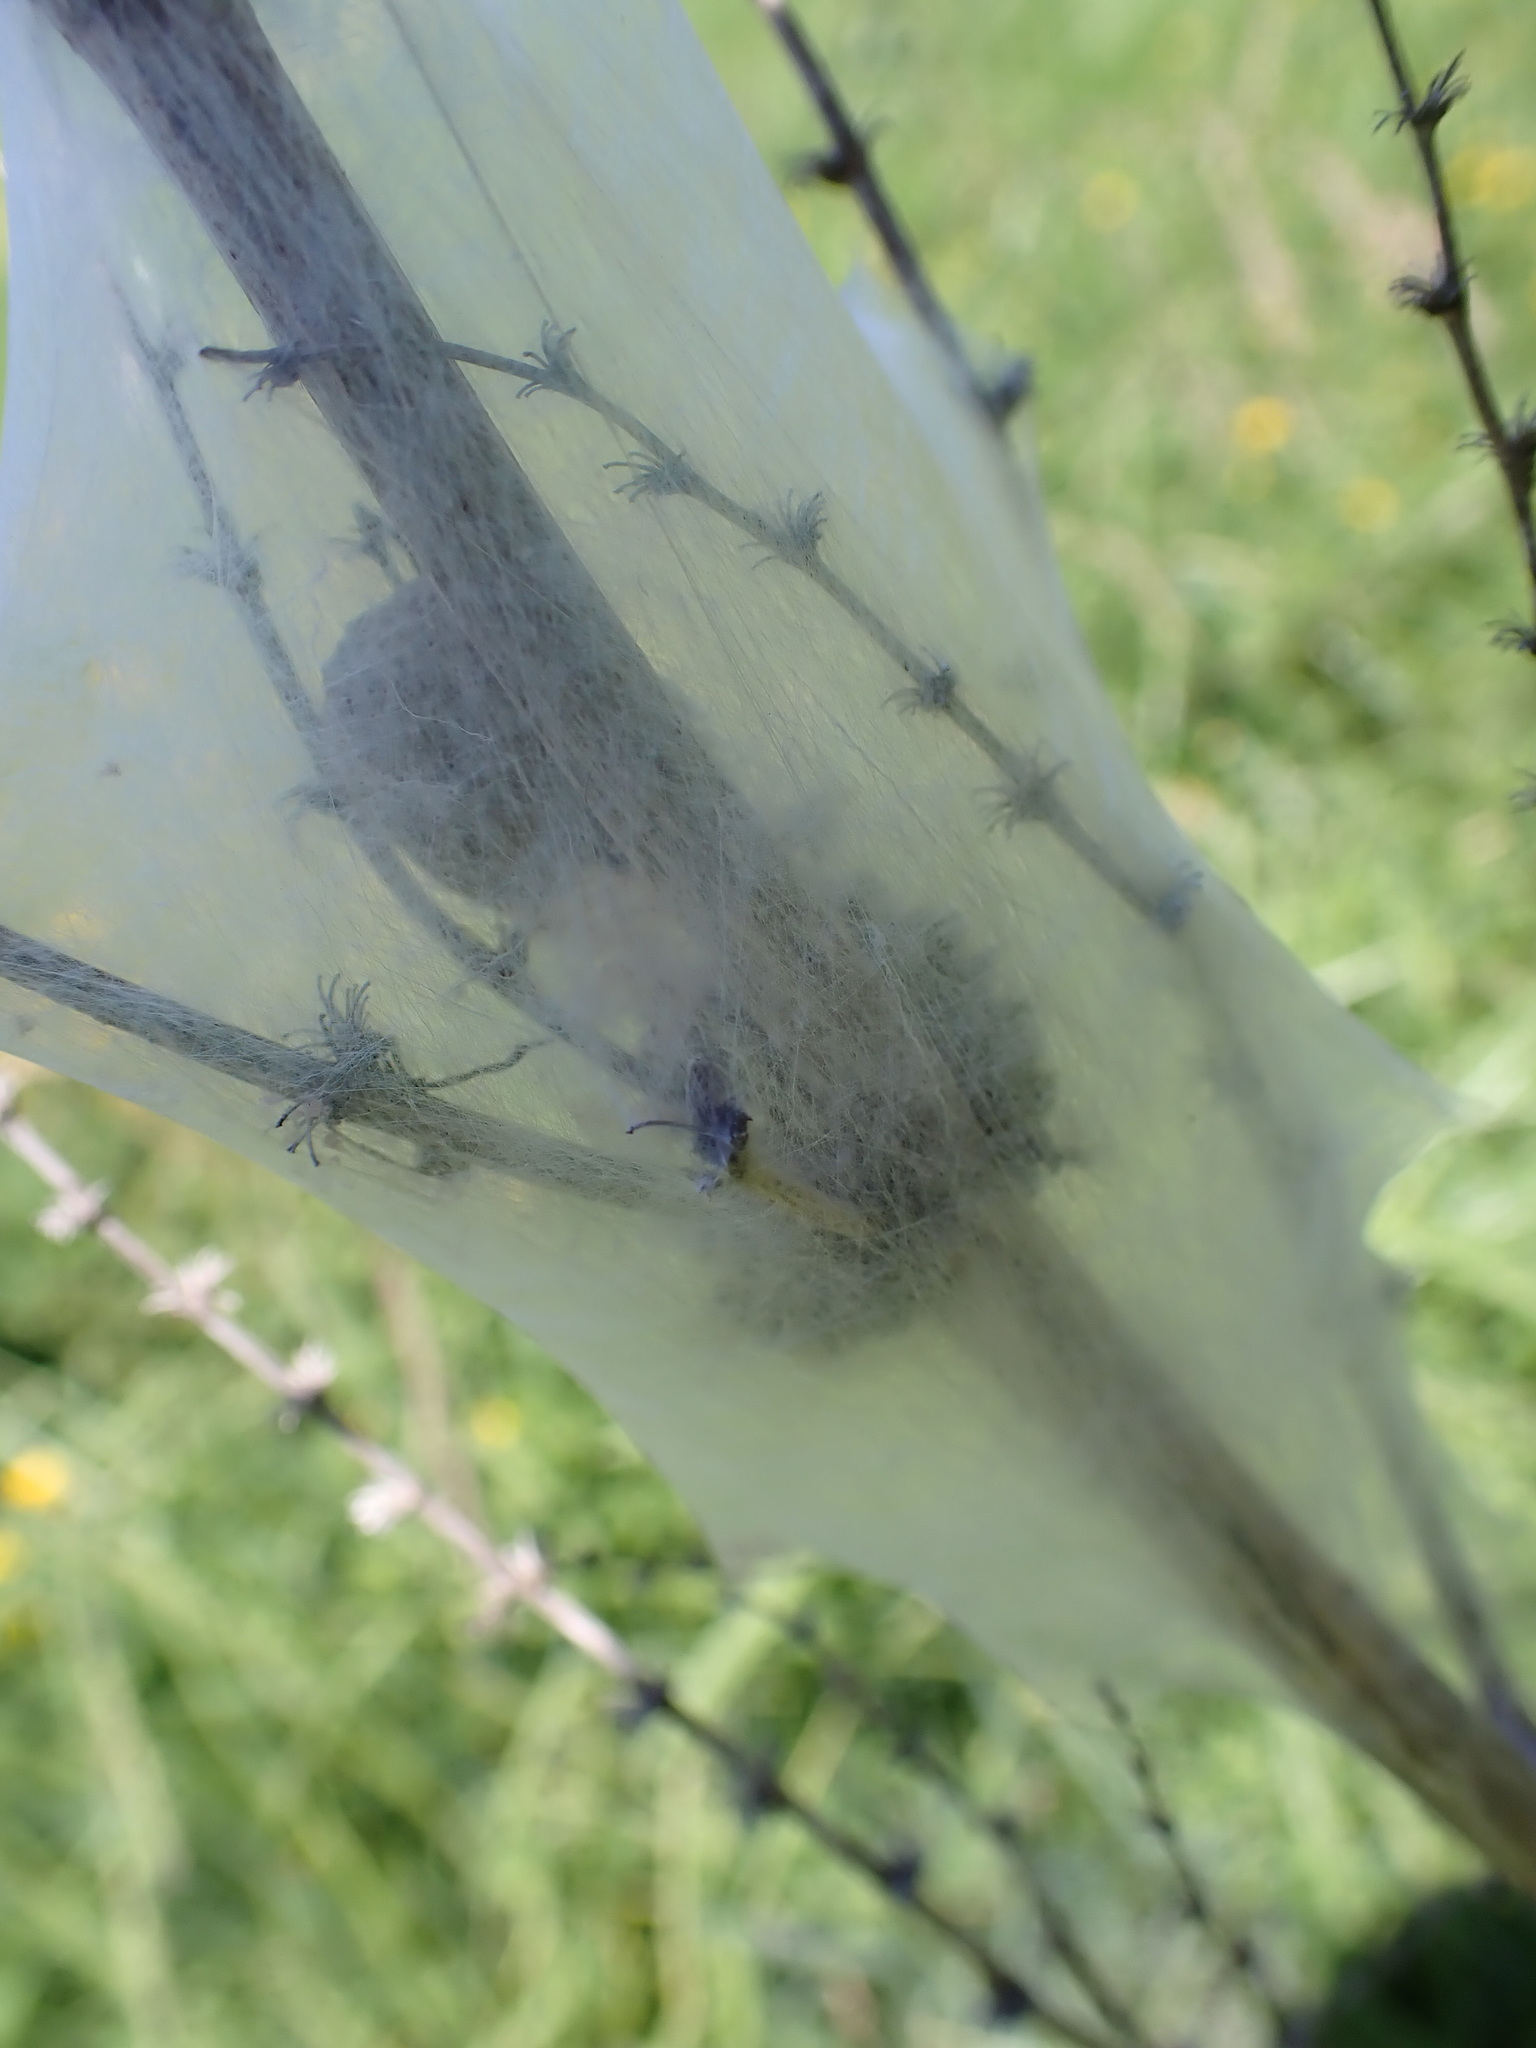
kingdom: Animalia
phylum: Arthropoda
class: Arachnida
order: Araneae
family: Pisauridae
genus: Dolomedes
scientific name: Dolomedes minor
